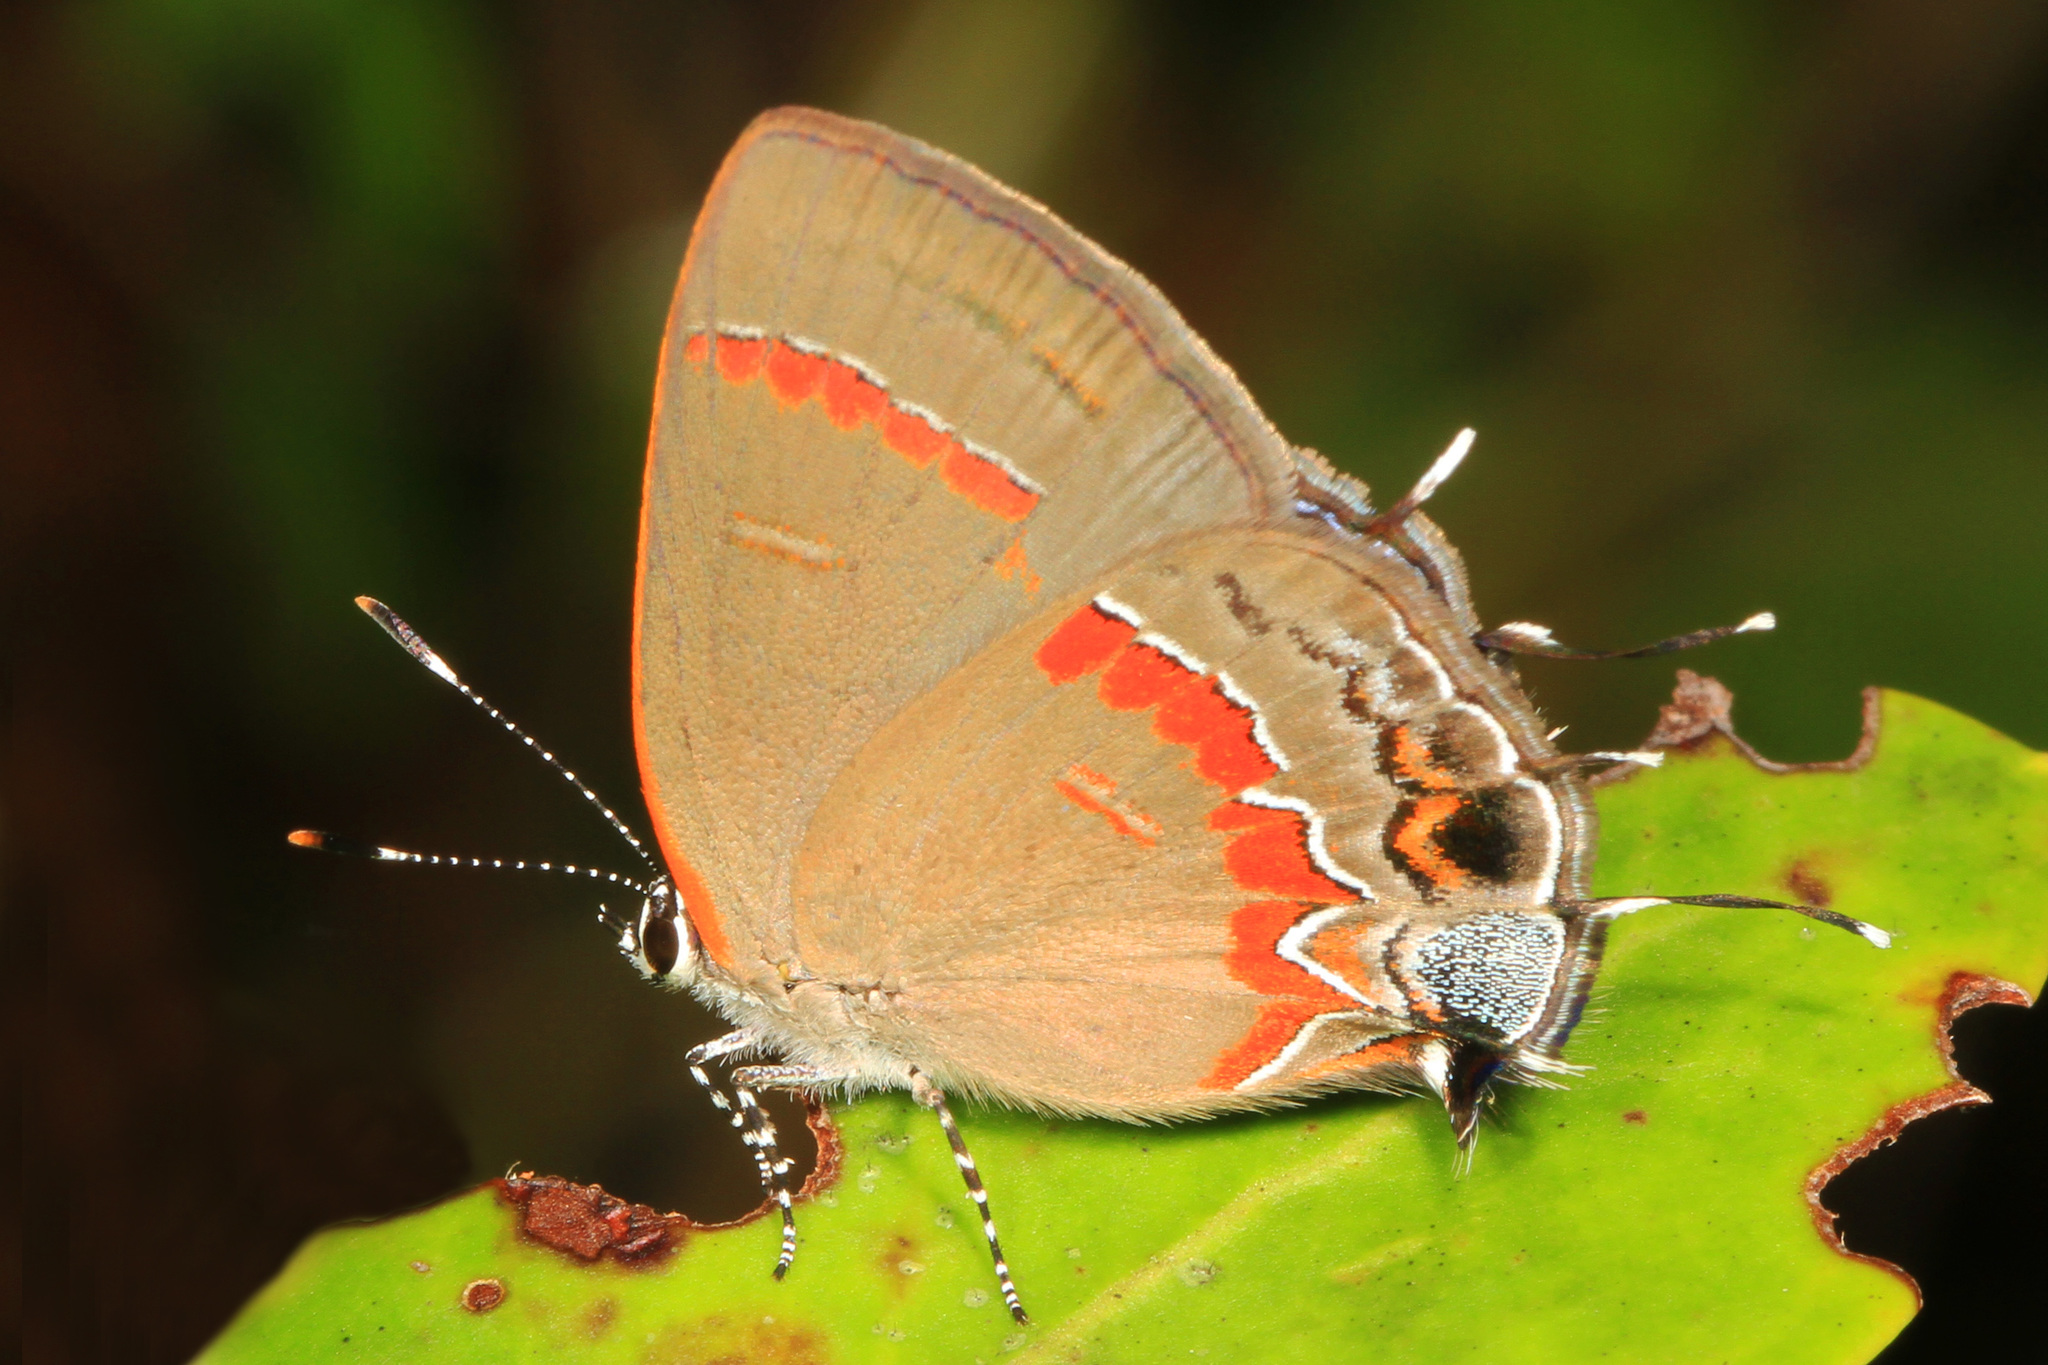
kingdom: Animalia
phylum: Arthropoda
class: Insecta
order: Lepidoptera
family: Lycaenidae
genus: Calycopis
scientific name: Calycopis cecrops
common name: Red-banded hairstreak
